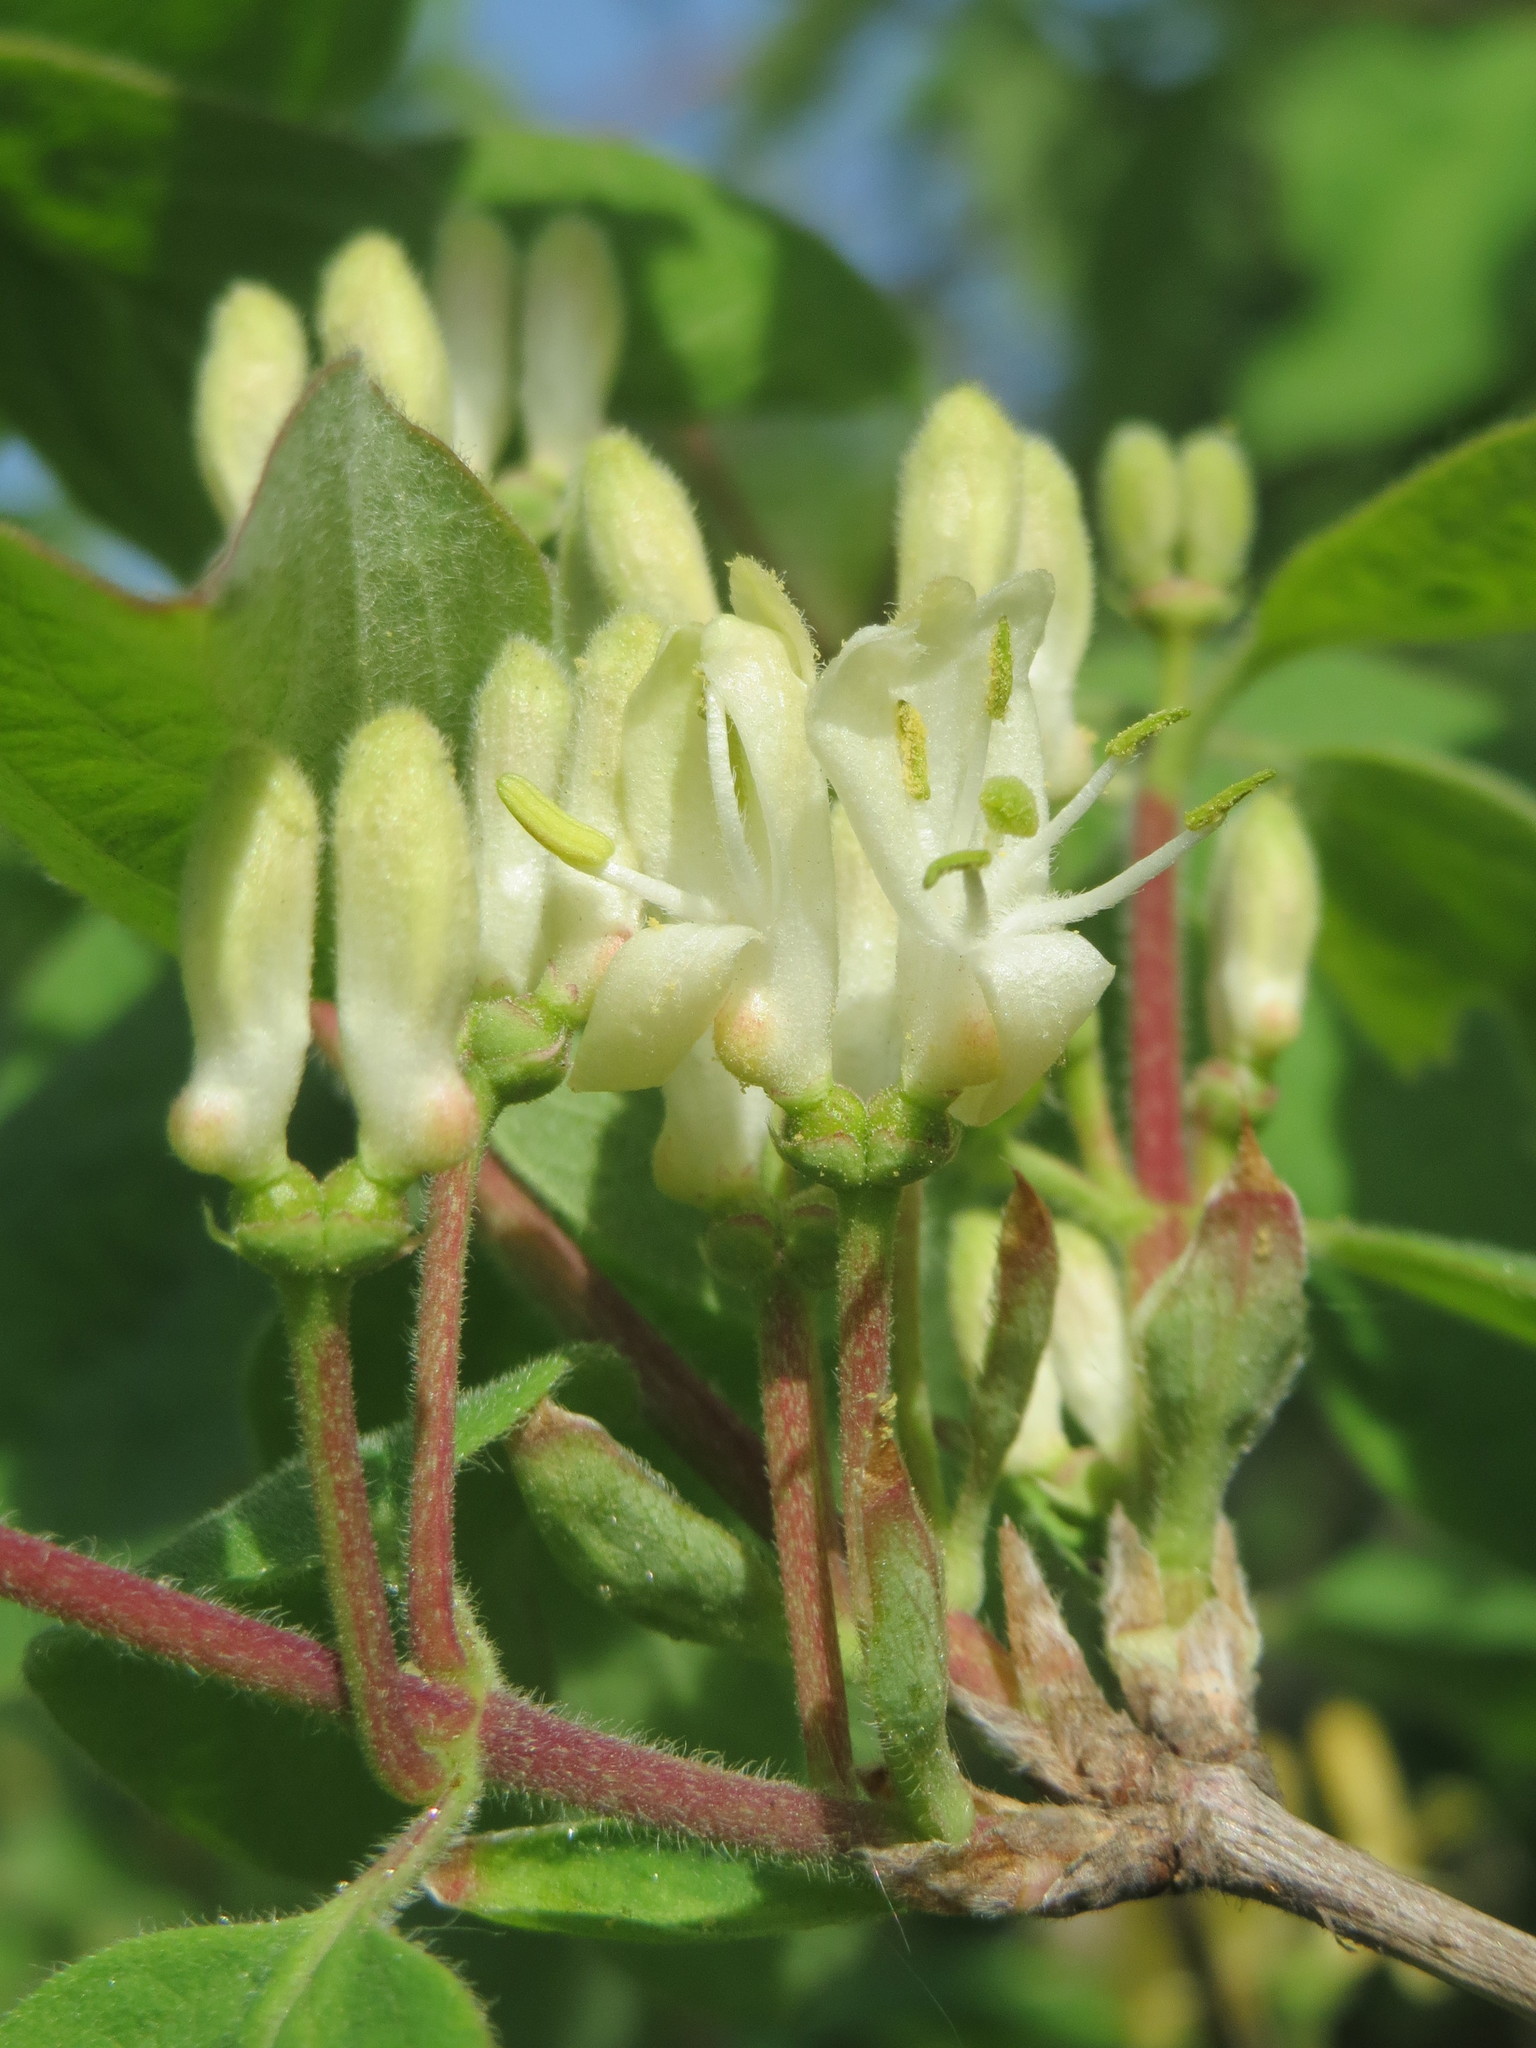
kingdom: Plantae
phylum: Tracheophyta
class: Magnoliopsida
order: Dipsacales
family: Caprifoliaceae
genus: Lonicera
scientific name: Lonicera xylosteum
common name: Fly honeysuckle
